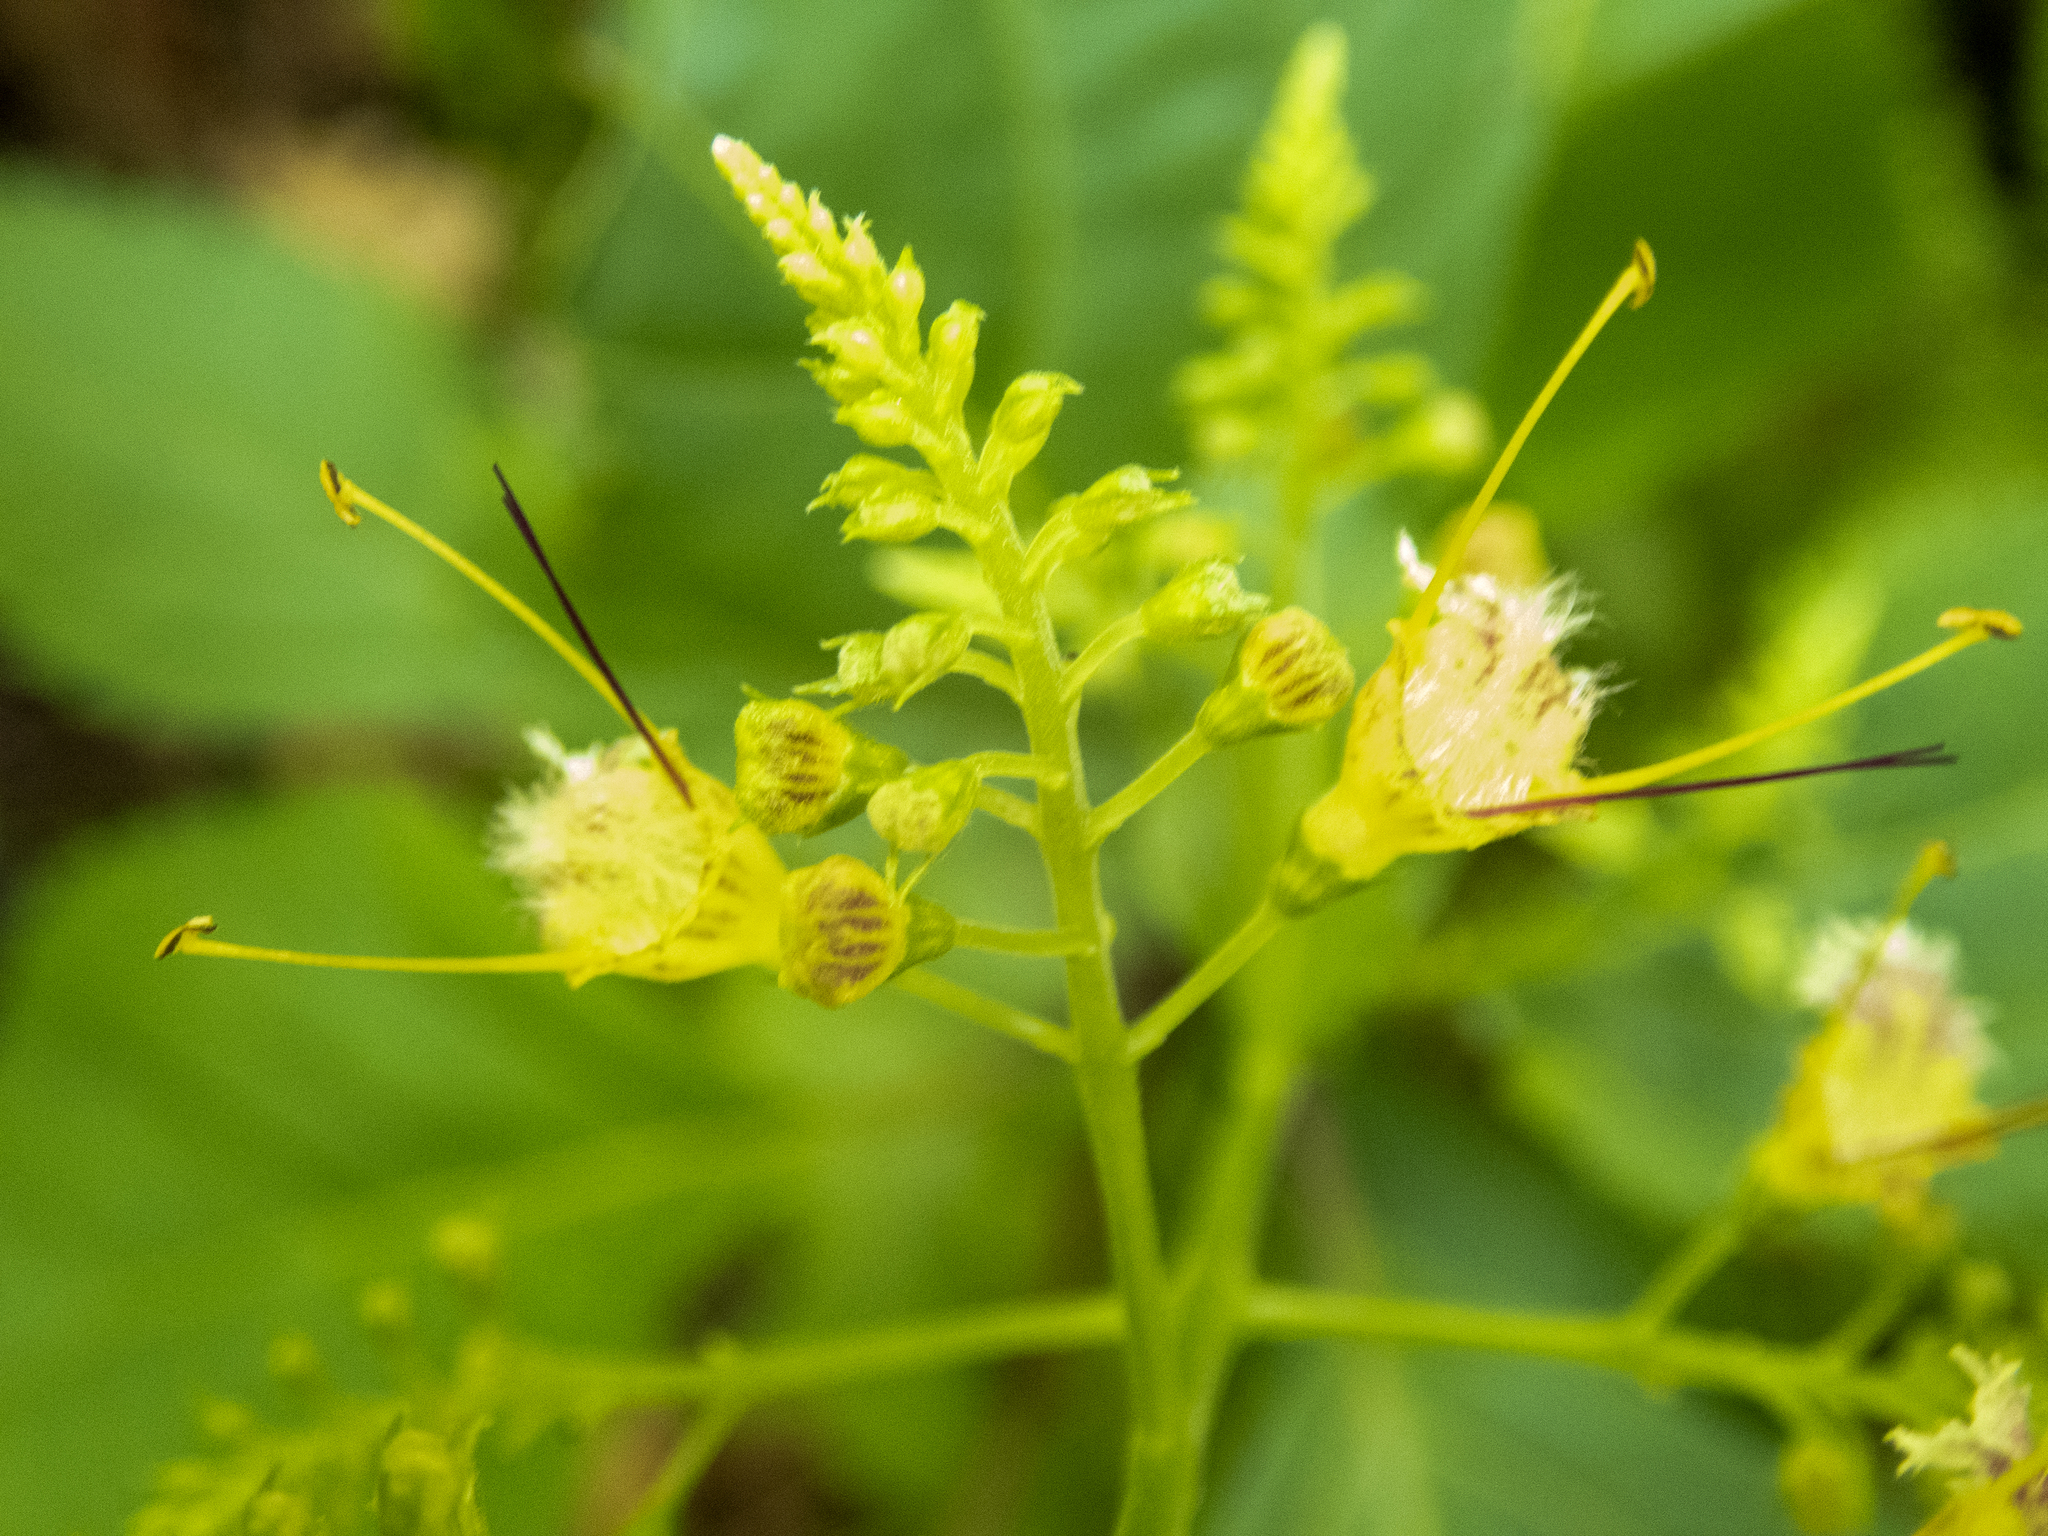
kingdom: Plantae
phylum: Tracheophyta
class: Magnoliopsida
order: Lamiales
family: Lamiaceae
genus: Collinsonia
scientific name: Collinsonia canadensis
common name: Northern horsebalm
